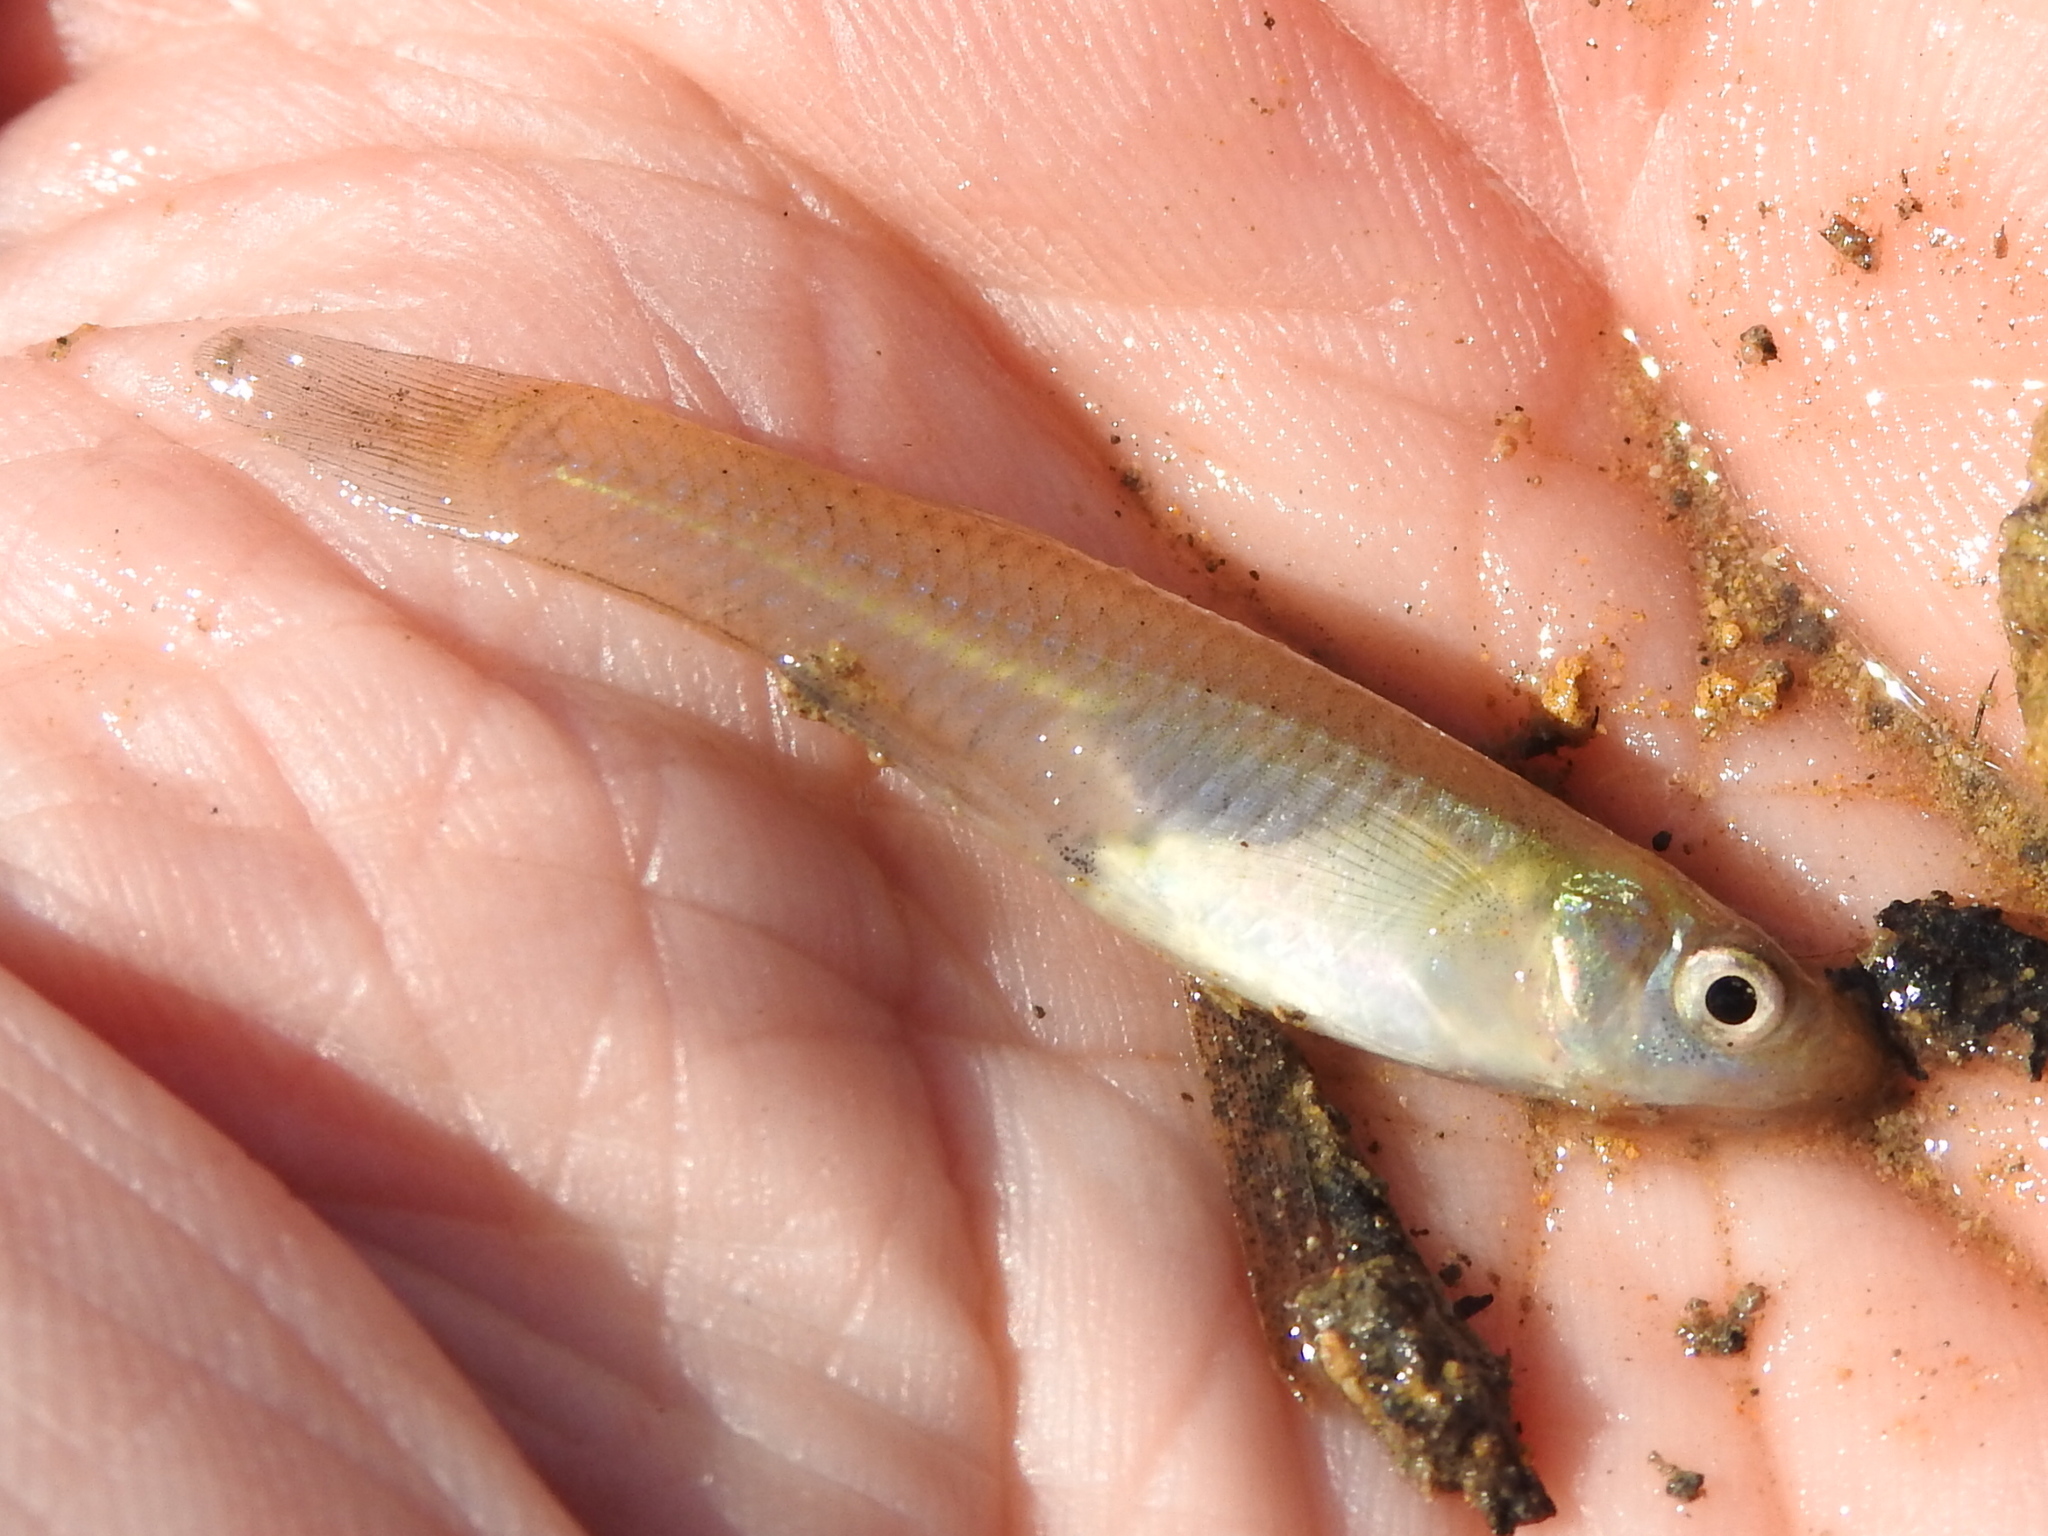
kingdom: Animalia
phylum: Chordata
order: Cyprinodontiformes
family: Poeciliidae
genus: Gambusia
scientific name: Gambusia affinis
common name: Mosquitofish
